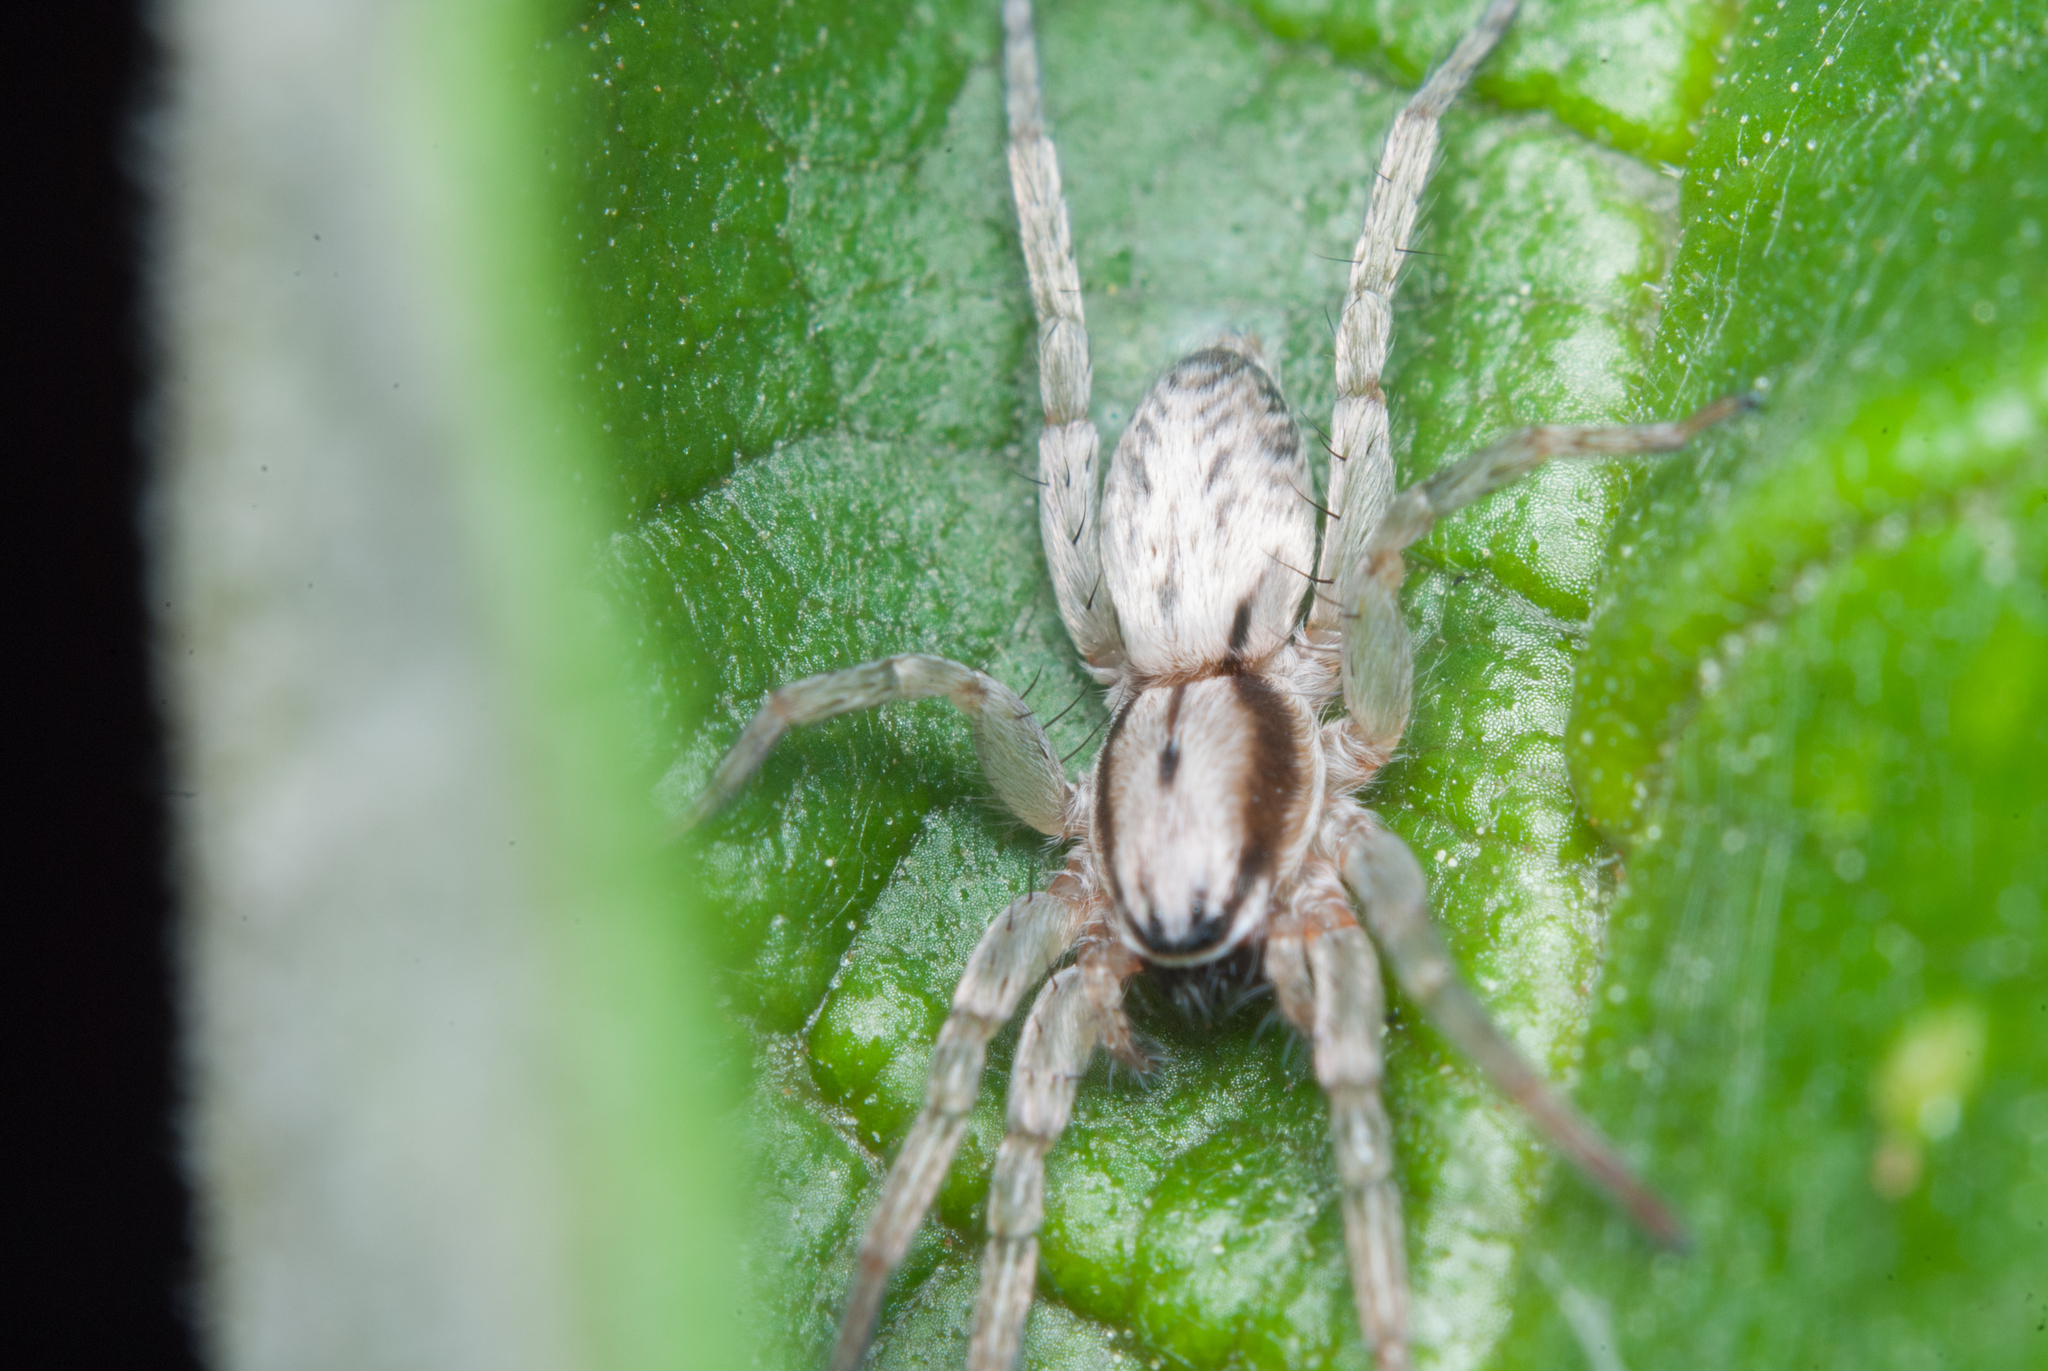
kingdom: Animalia
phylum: Arthropoda
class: Arachnida
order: Araneae
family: Anyphaenidae
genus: Josa
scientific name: Josa keyserlingi
